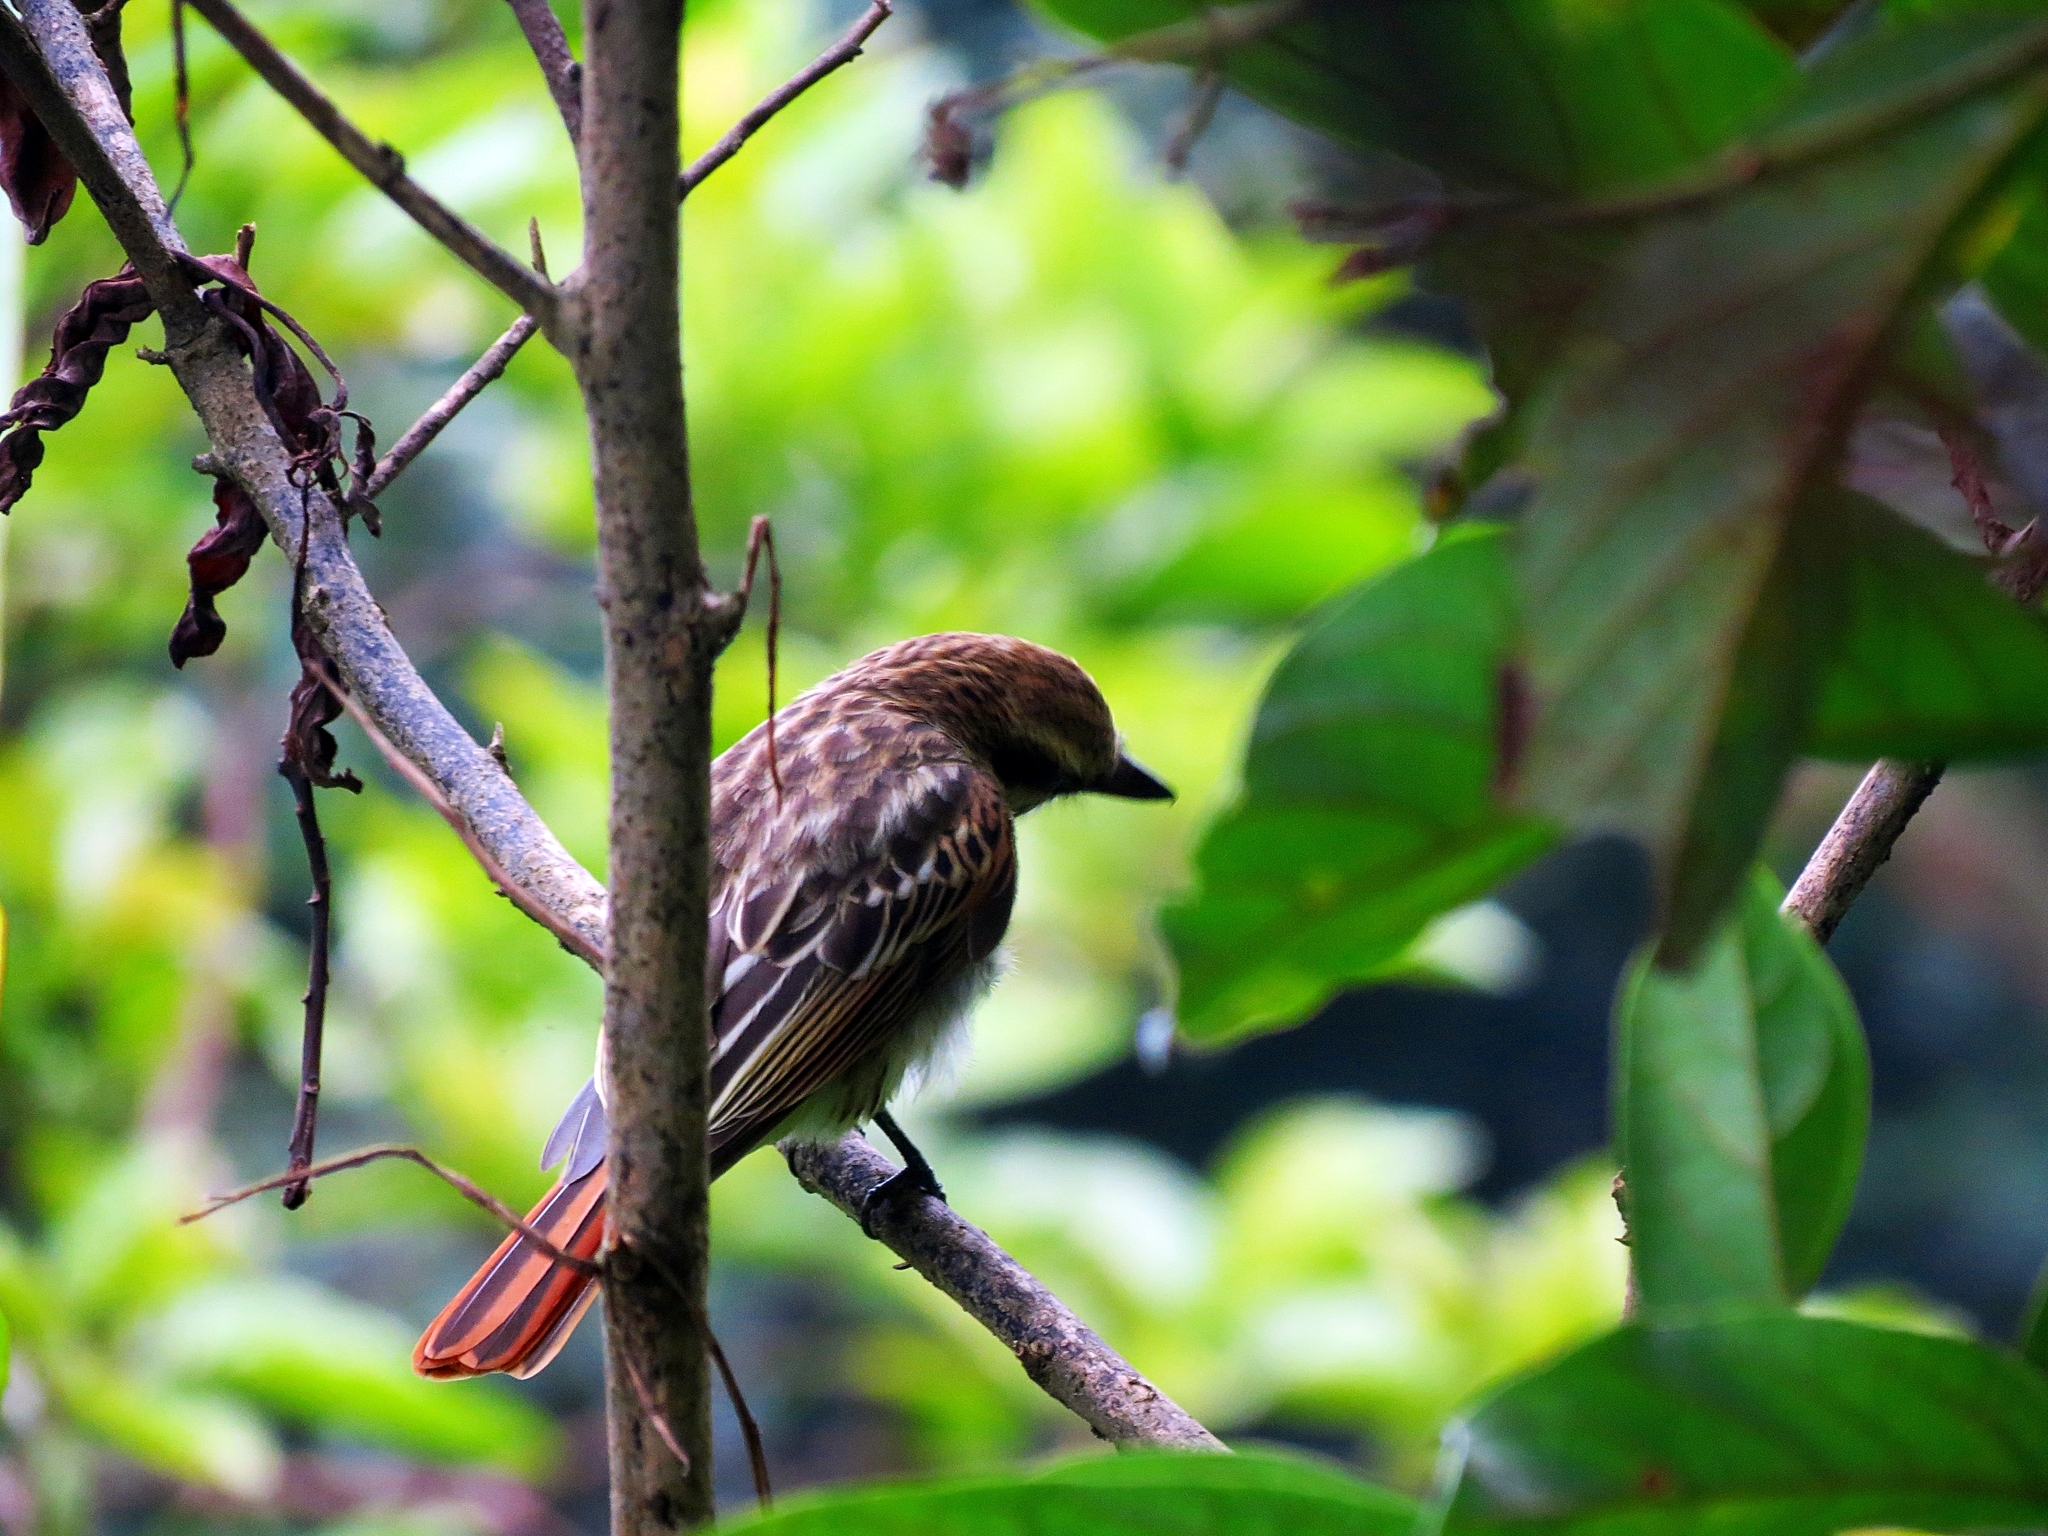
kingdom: Animalia
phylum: Chordata
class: Aves
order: Passeriformes
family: Tyrannidae
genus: Myiodynastes
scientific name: Myiodynastes maculatus
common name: Streaked flycatcher
